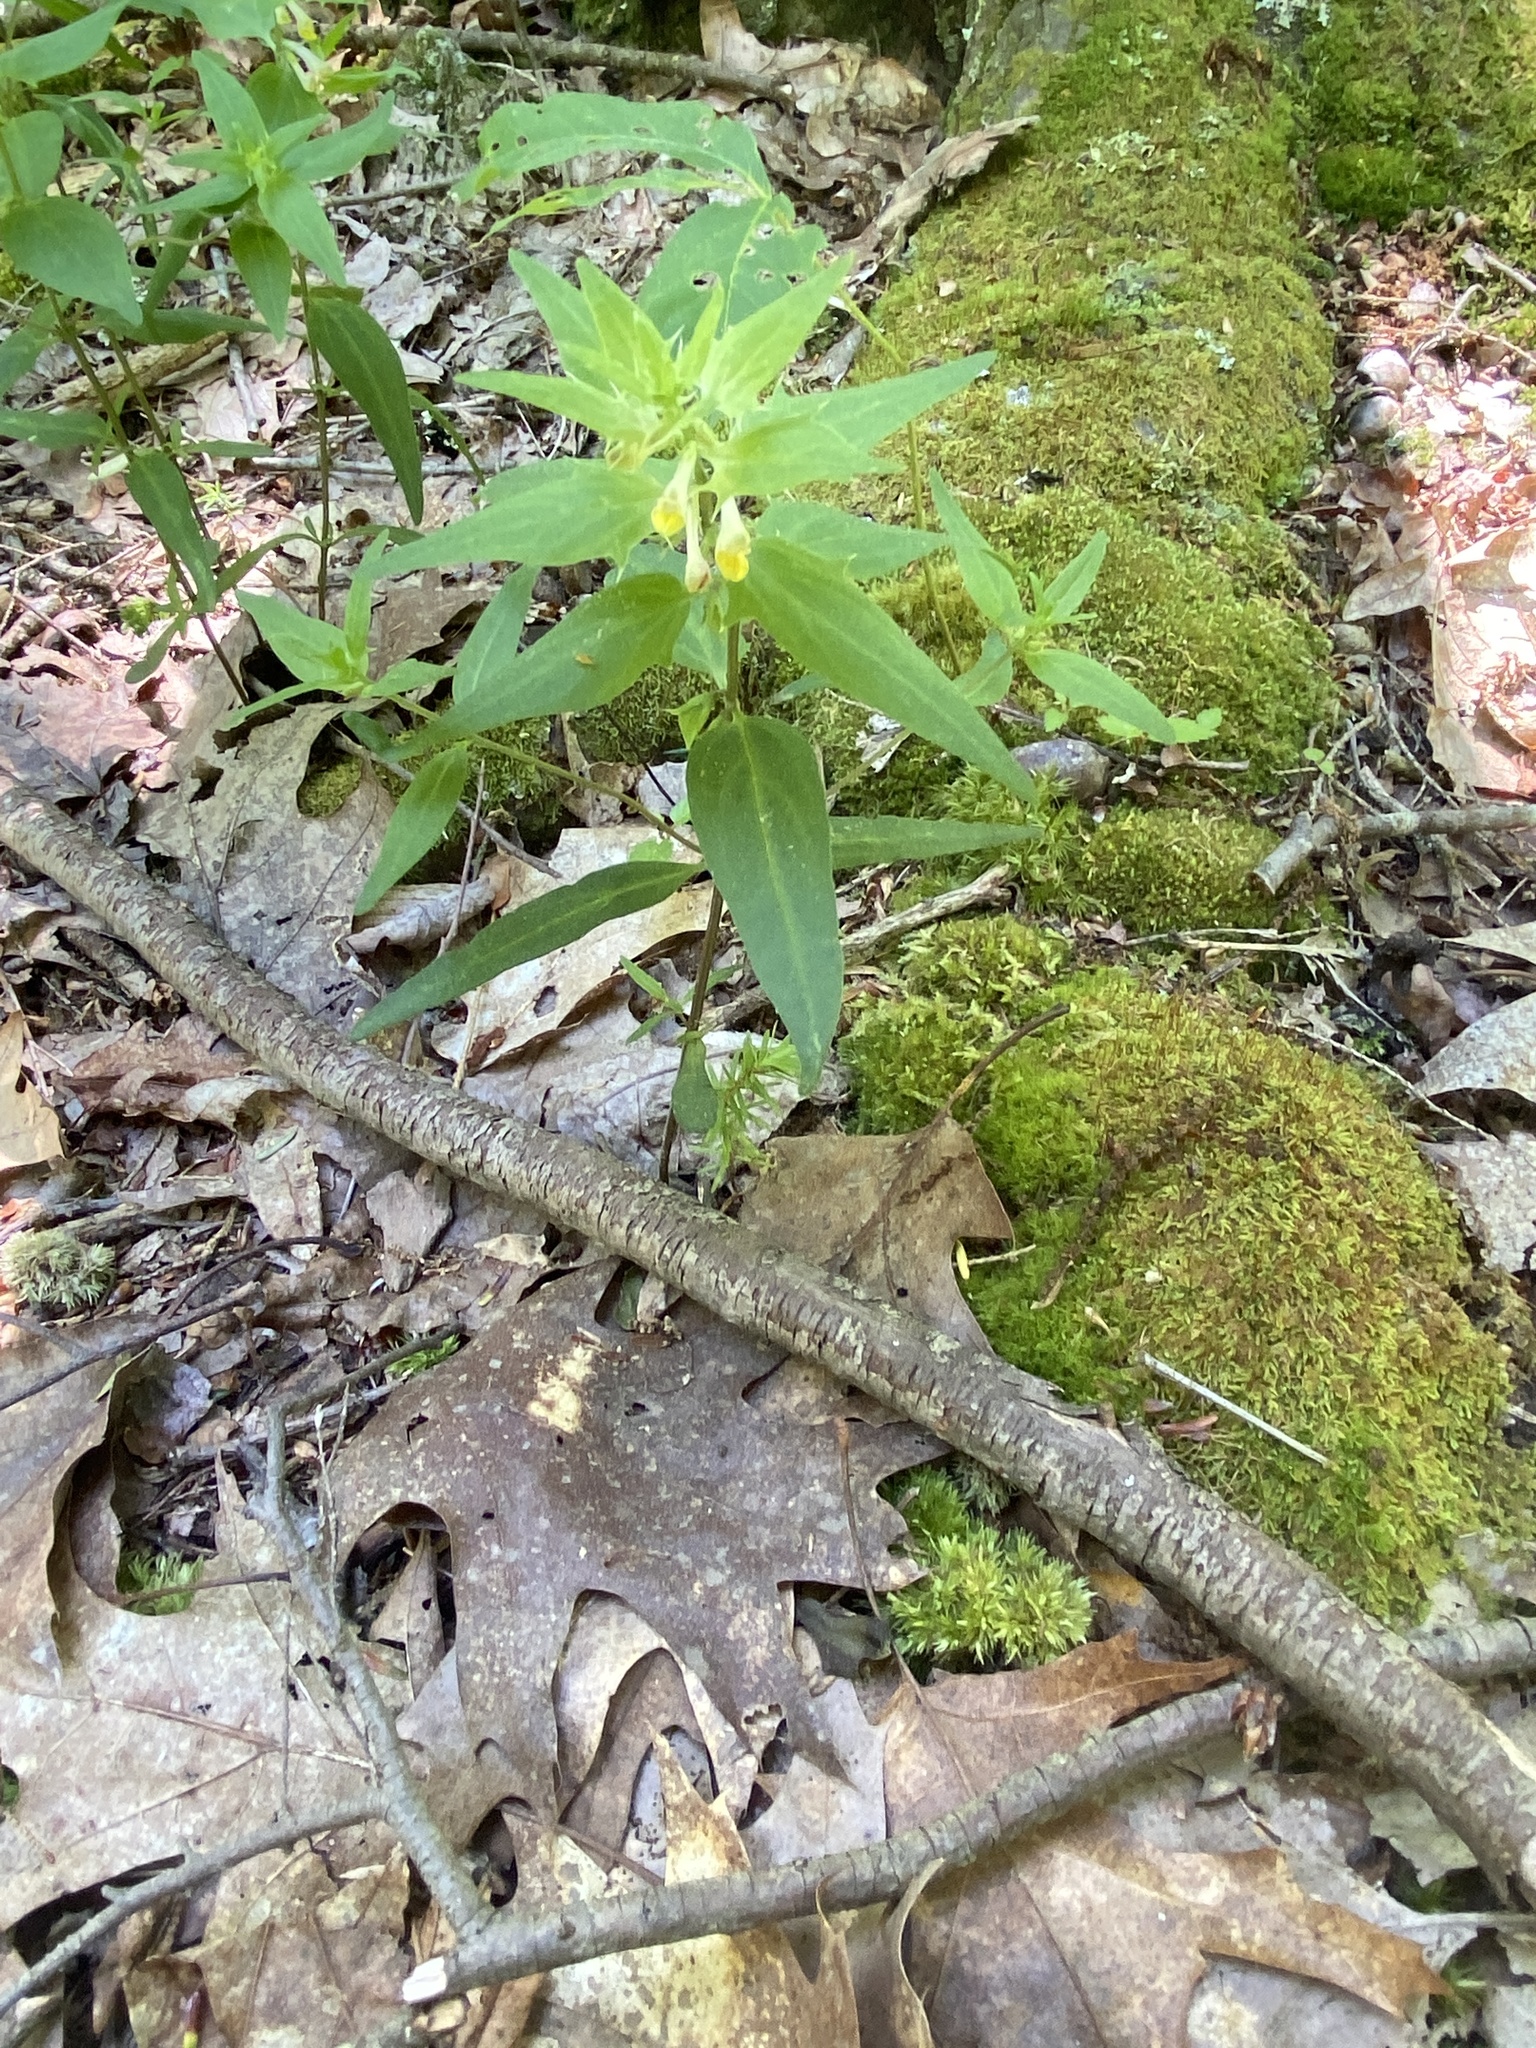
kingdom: Plantae
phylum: Tracheophyta
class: Magnoliopsida
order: Lamiales
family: Orobanchaceae
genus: Melampyrum
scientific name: Melampyrum lineare
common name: American cow-wheat
